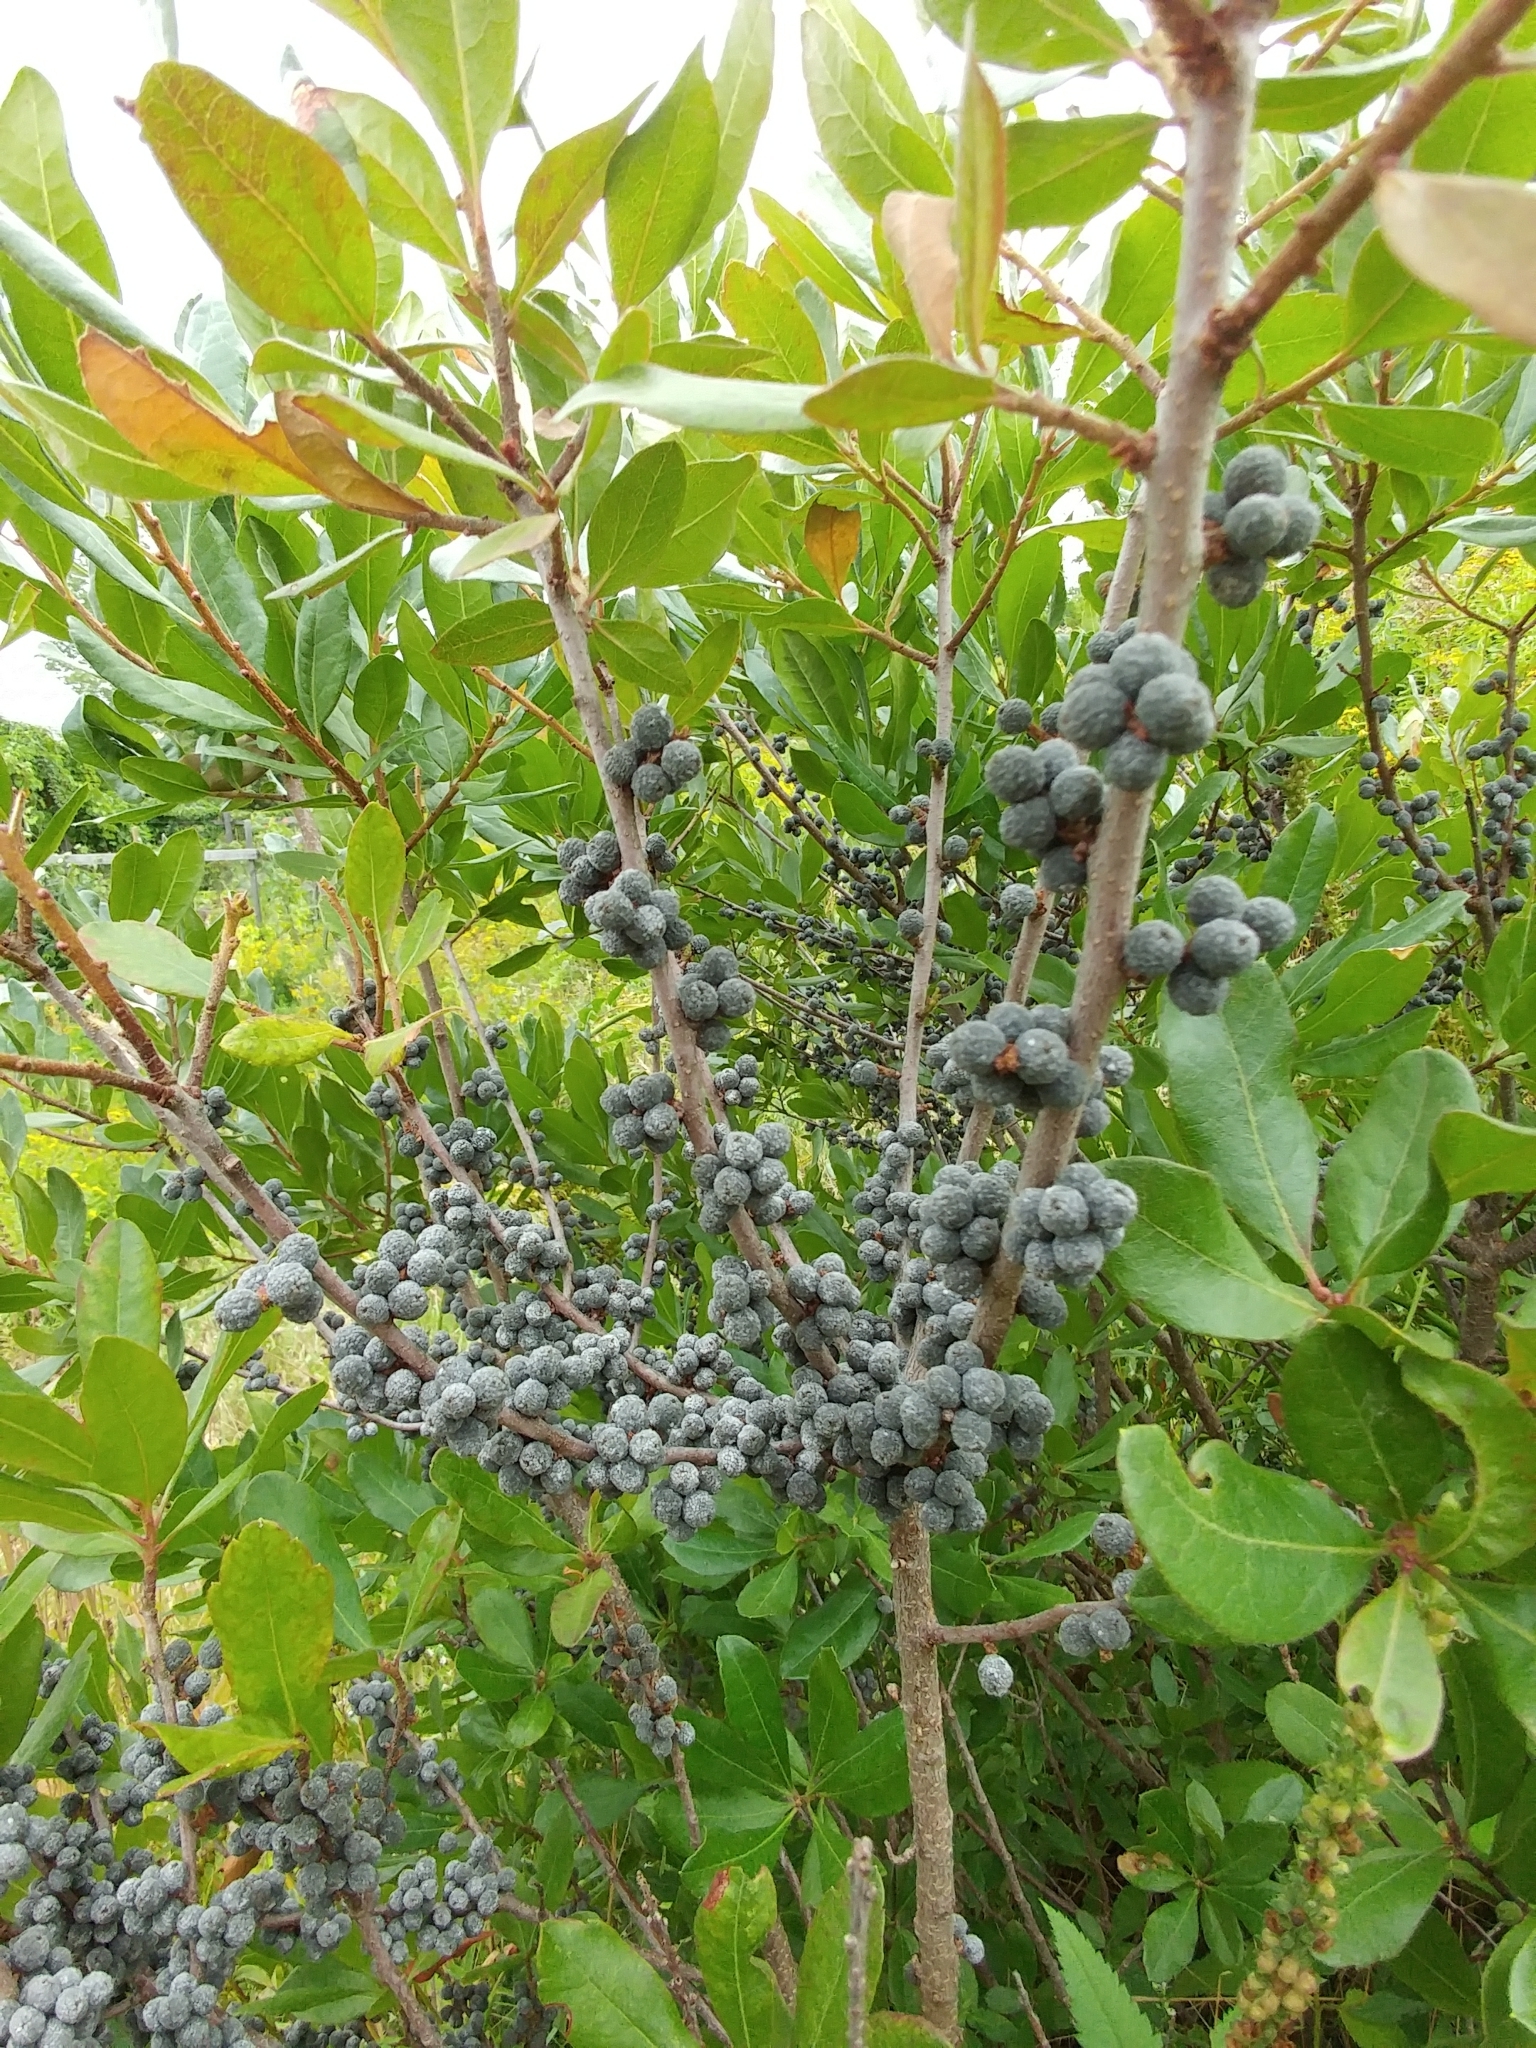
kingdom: Plantae
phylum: Tracheophyta
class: Magnoliopsida
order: Fagales
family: Myricaceae
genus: Morella
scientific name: Morella pensylvanica
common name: Northern bayberry
